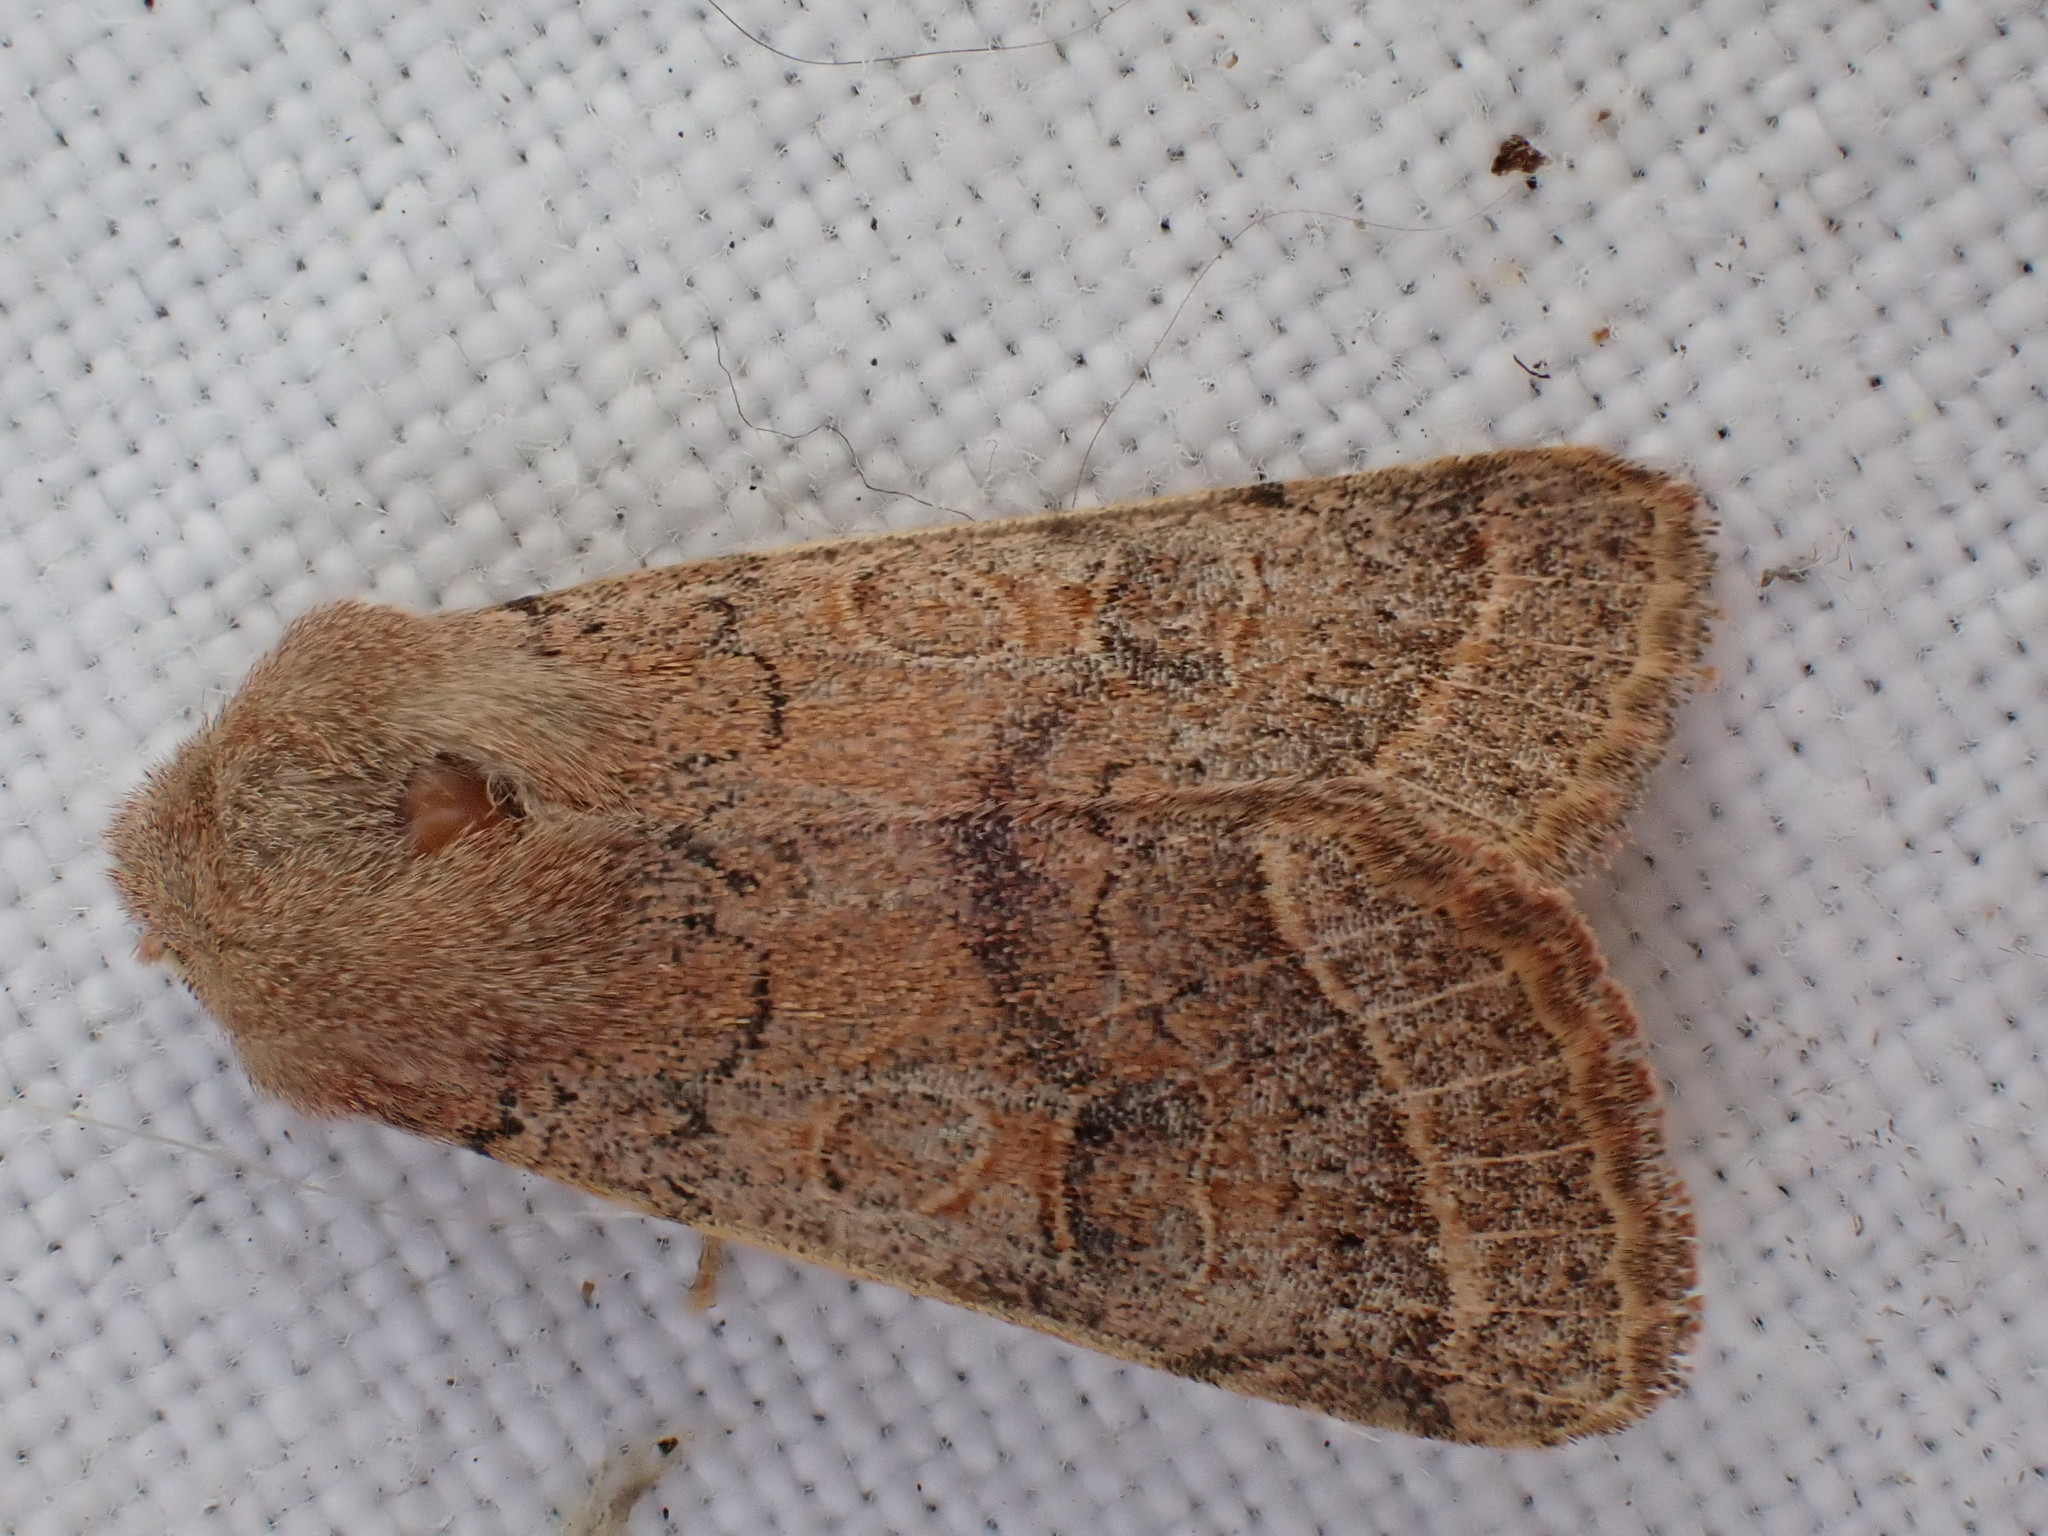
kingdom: Animalia
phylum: Arthropoda
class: Insecta
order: Lepidoptera
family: Noctuidae
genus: Orthosia
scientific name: Orthosia cerasi
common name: Common quaker
